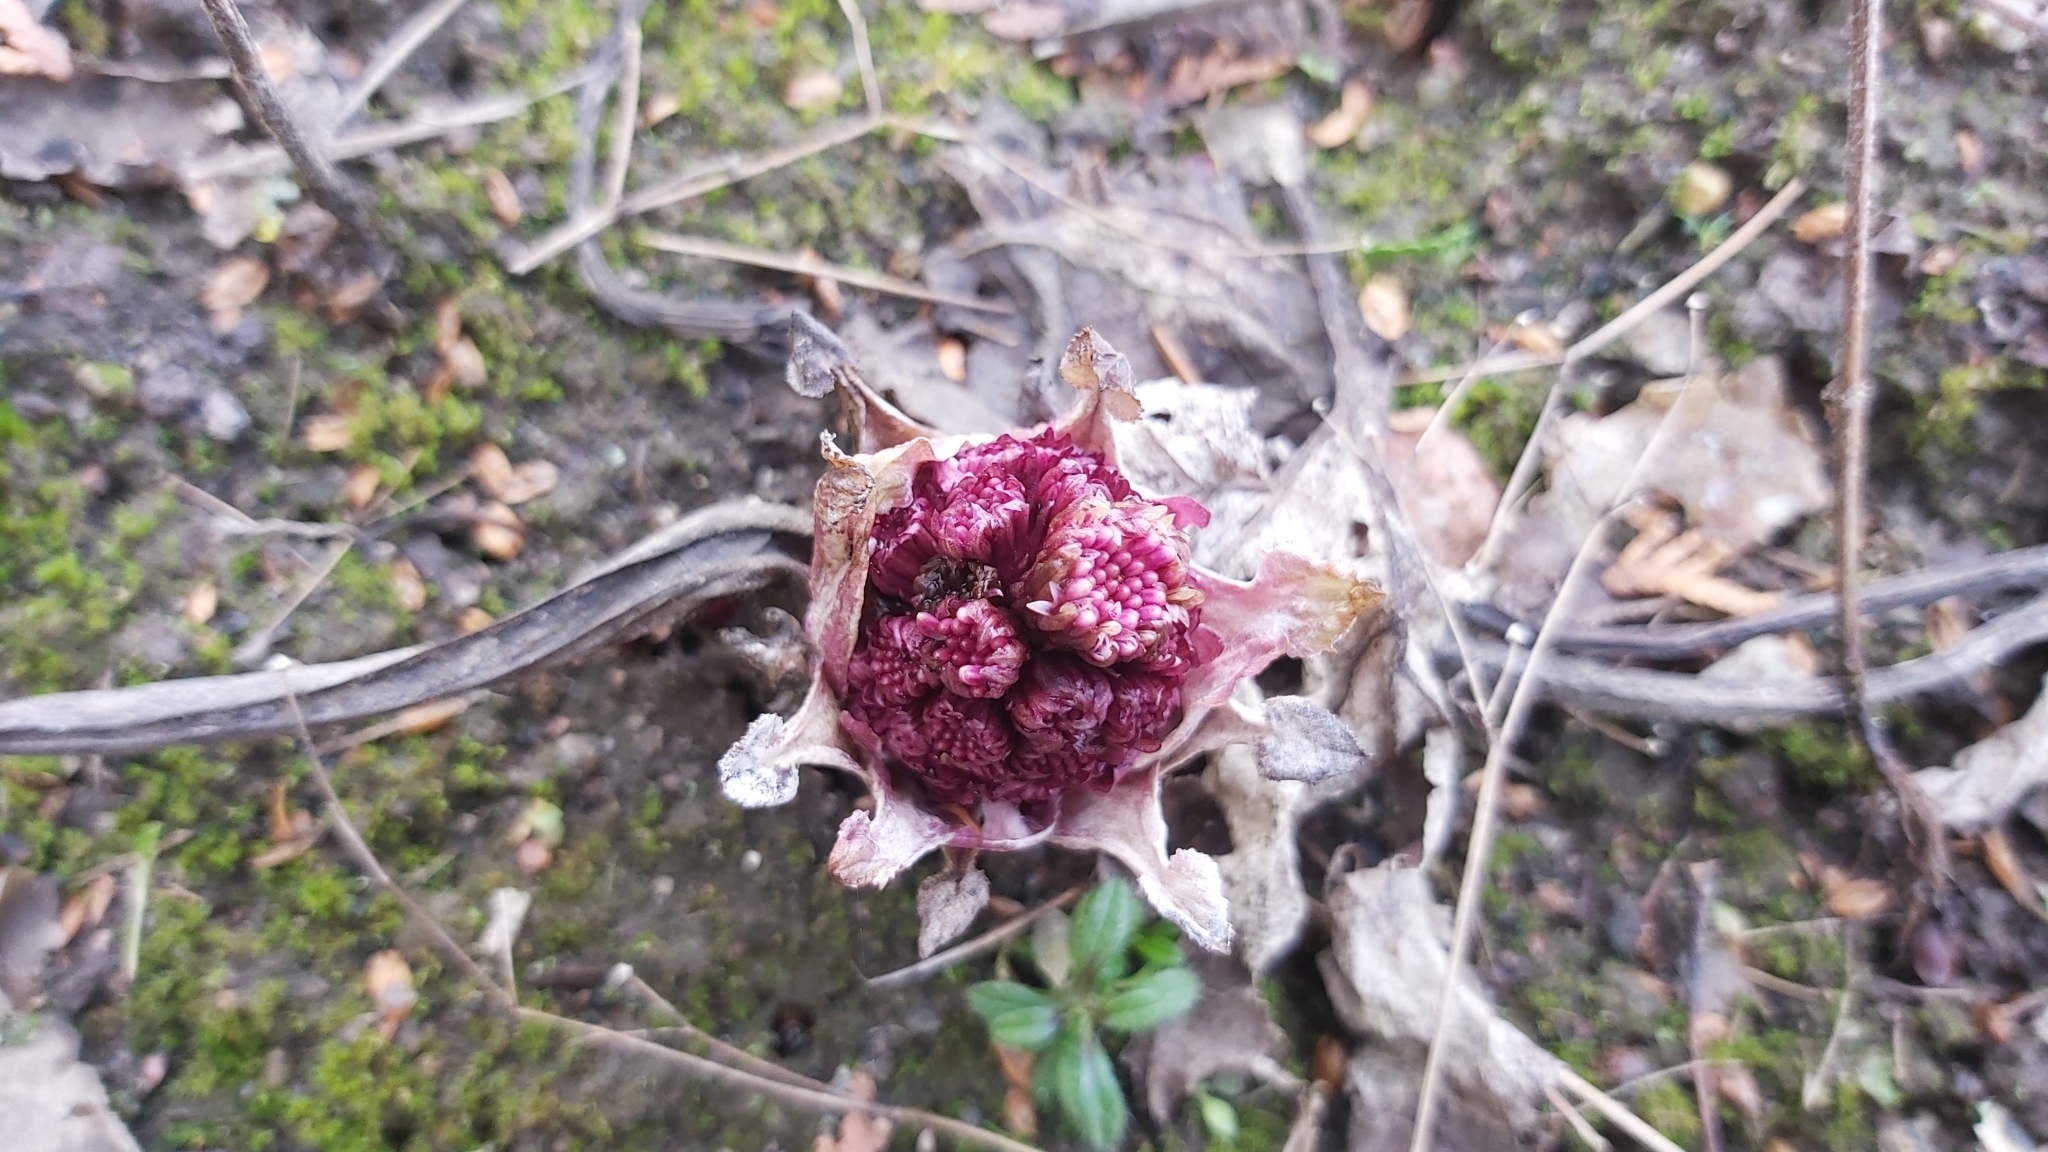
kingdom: Plantae
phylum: Tracheophyta
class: Magnoliopsida
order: Asterales
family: Asteraceae
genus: Petasites
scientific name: Petasites hybridus
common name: Butterbur
